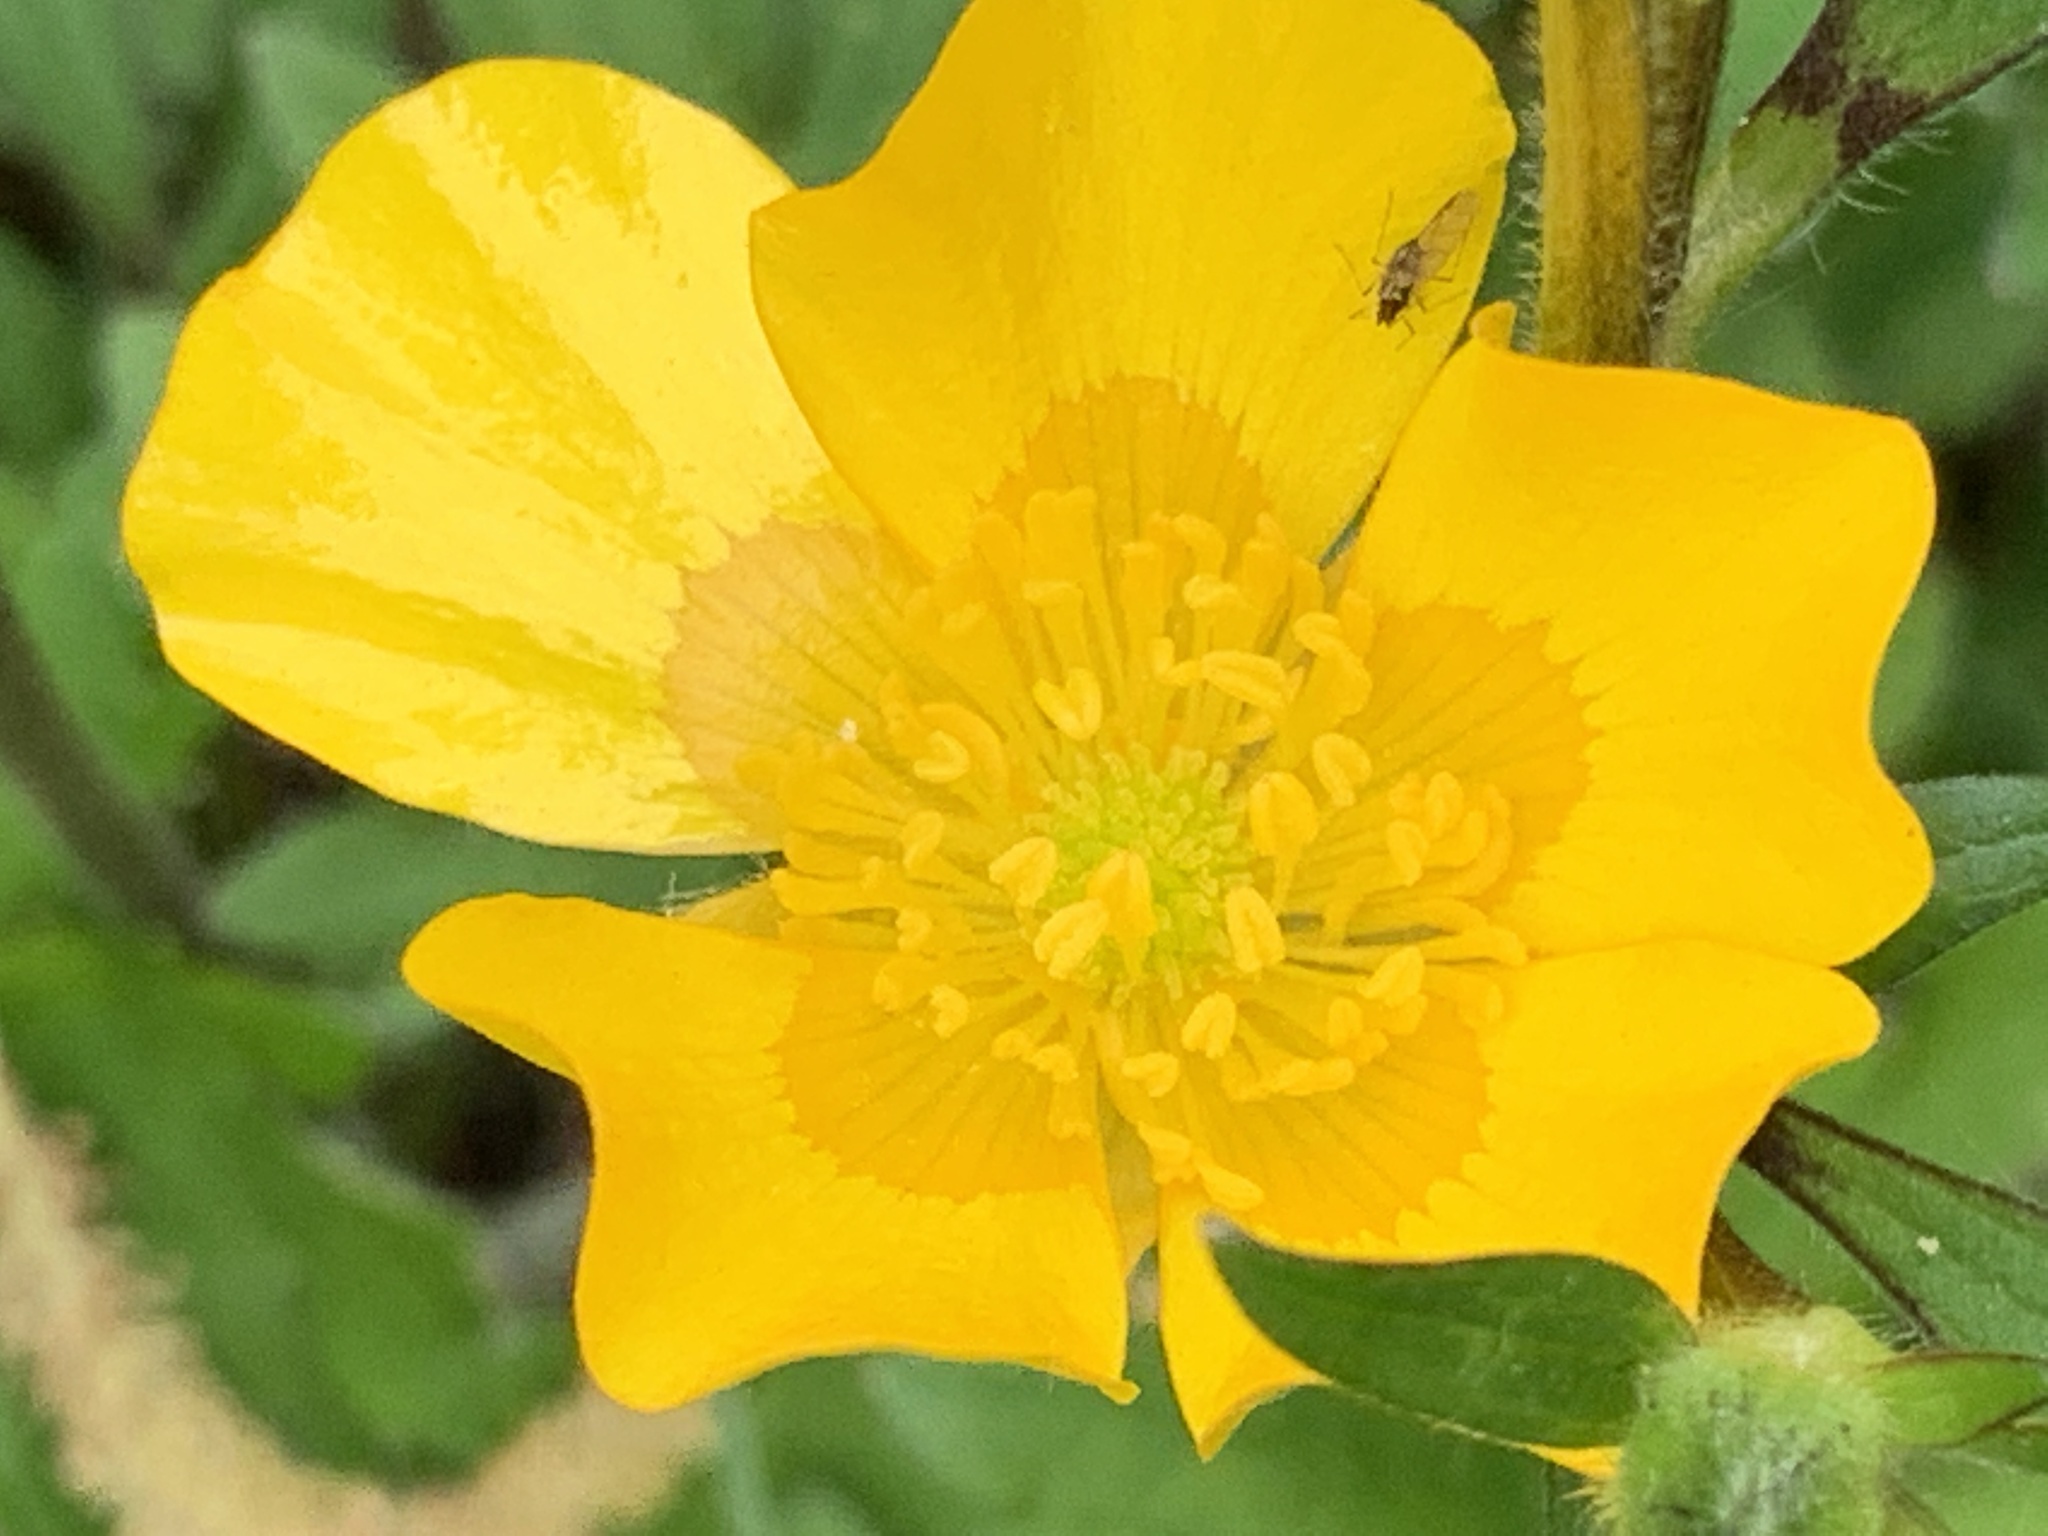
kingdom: Plantae
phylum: Tracheophyta
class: Magnoliopsida
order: Ranunculales
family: Ranunculaceae
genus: Ranunculus
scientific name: Ranunculus repens
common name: Creeping buttercup
